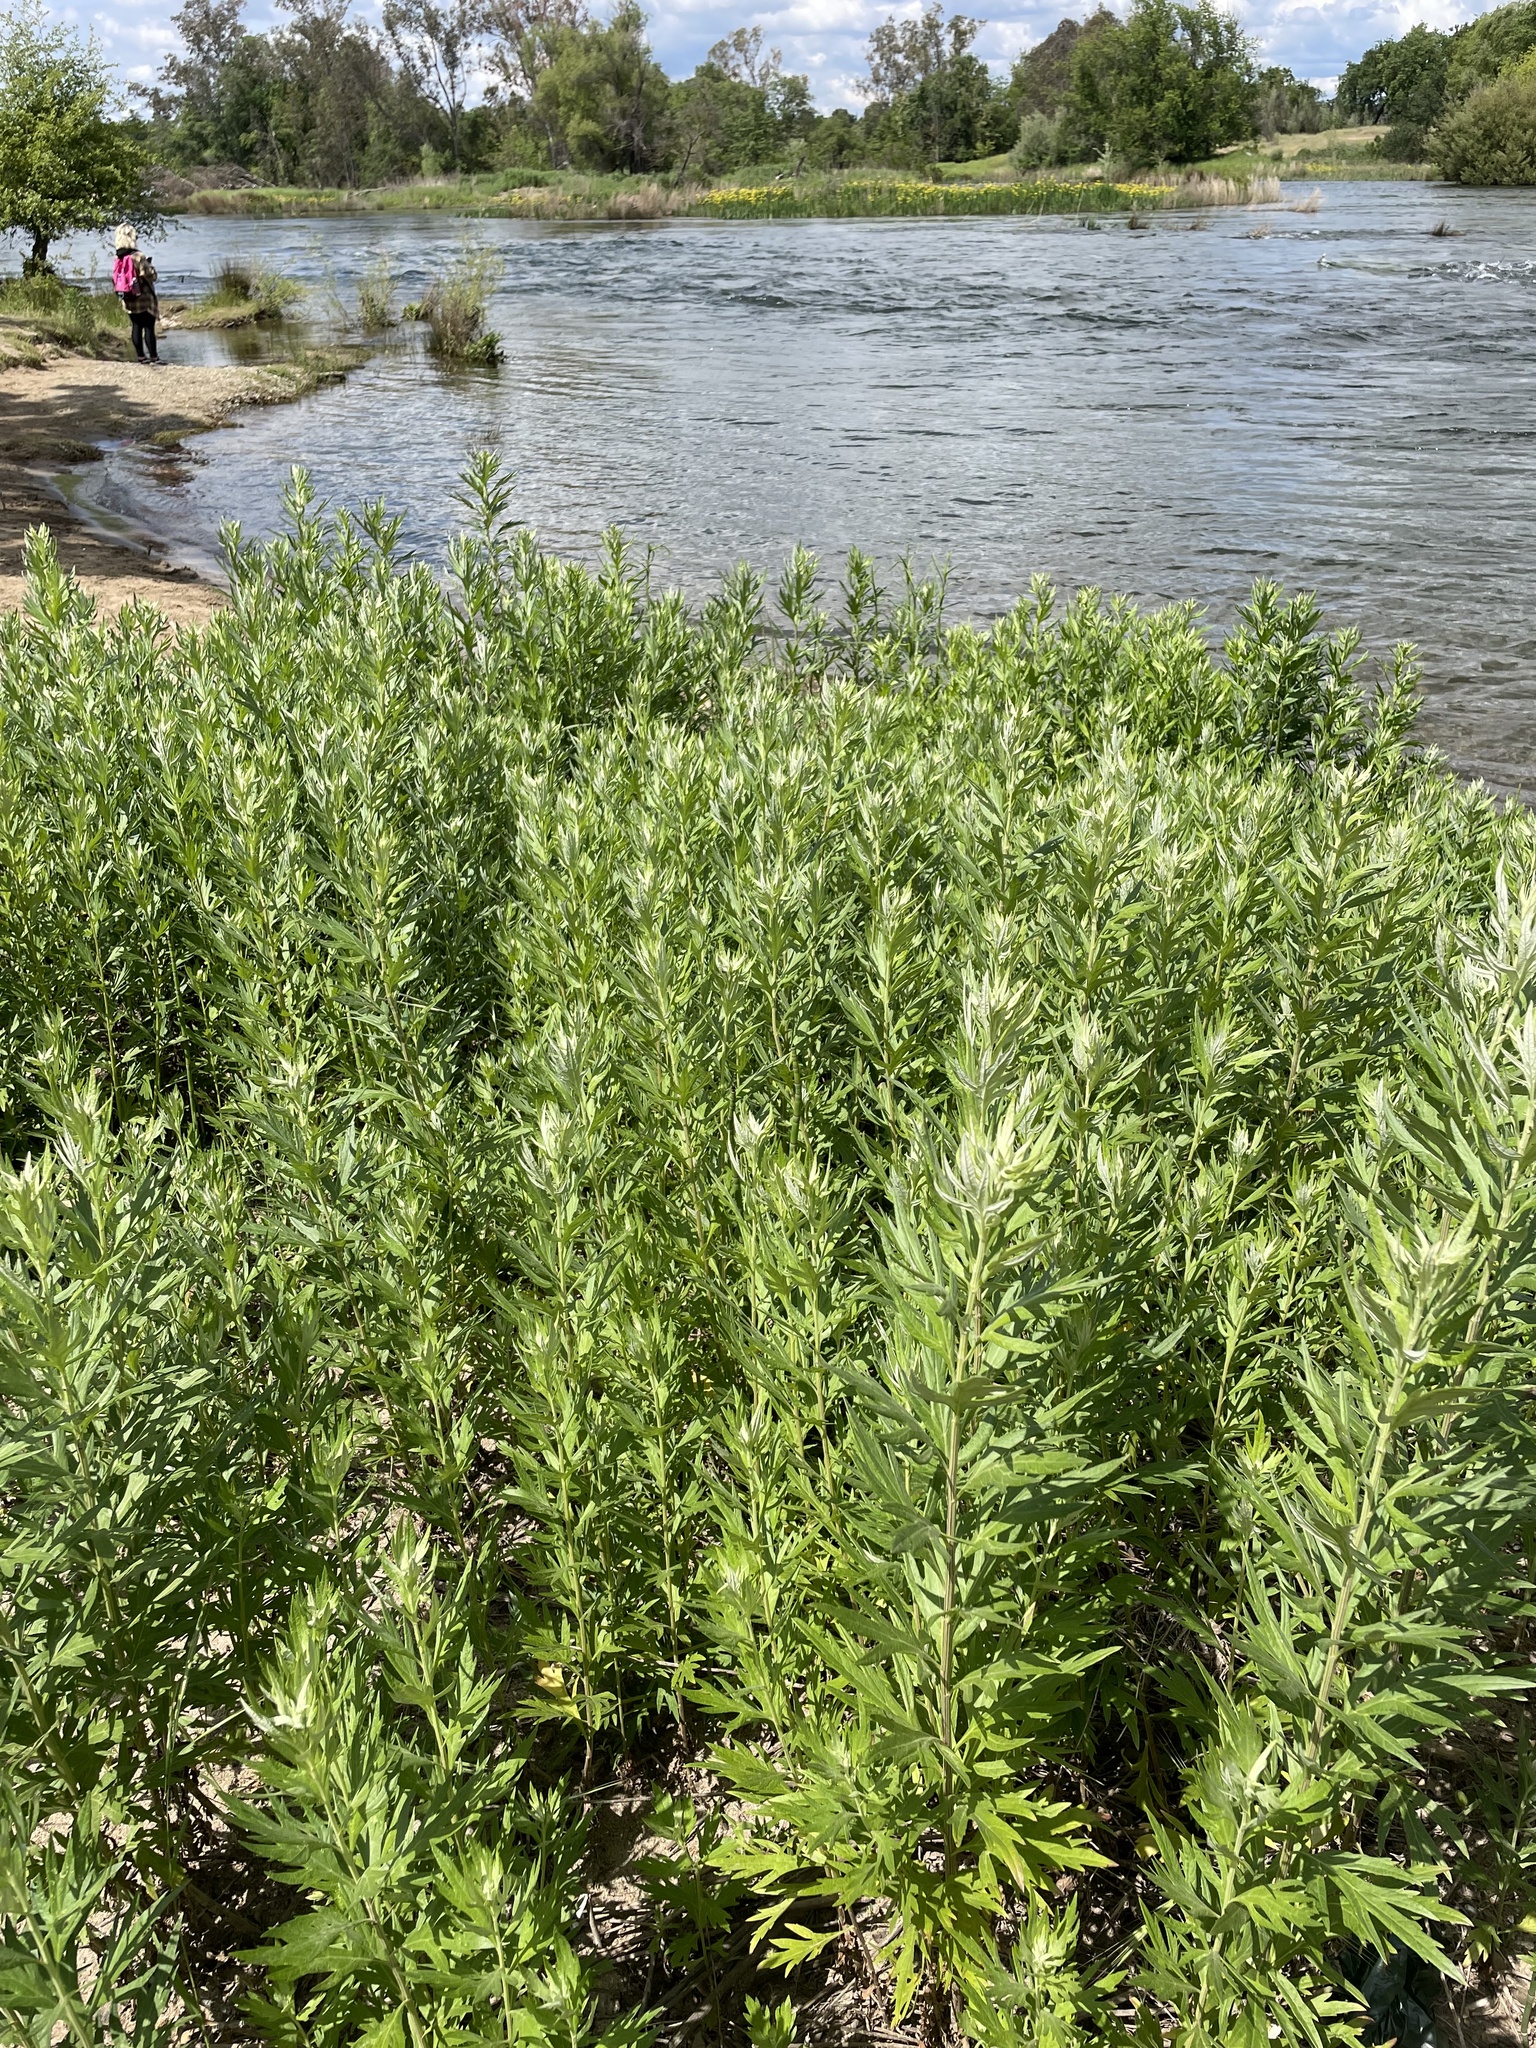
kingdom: Plantae
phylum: Tracheophyta
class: Magnoliopsida
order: Asterales
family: Asteraceae
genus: Artemisia
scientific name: Artemisia douglasiana
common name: Northwest mugwort
